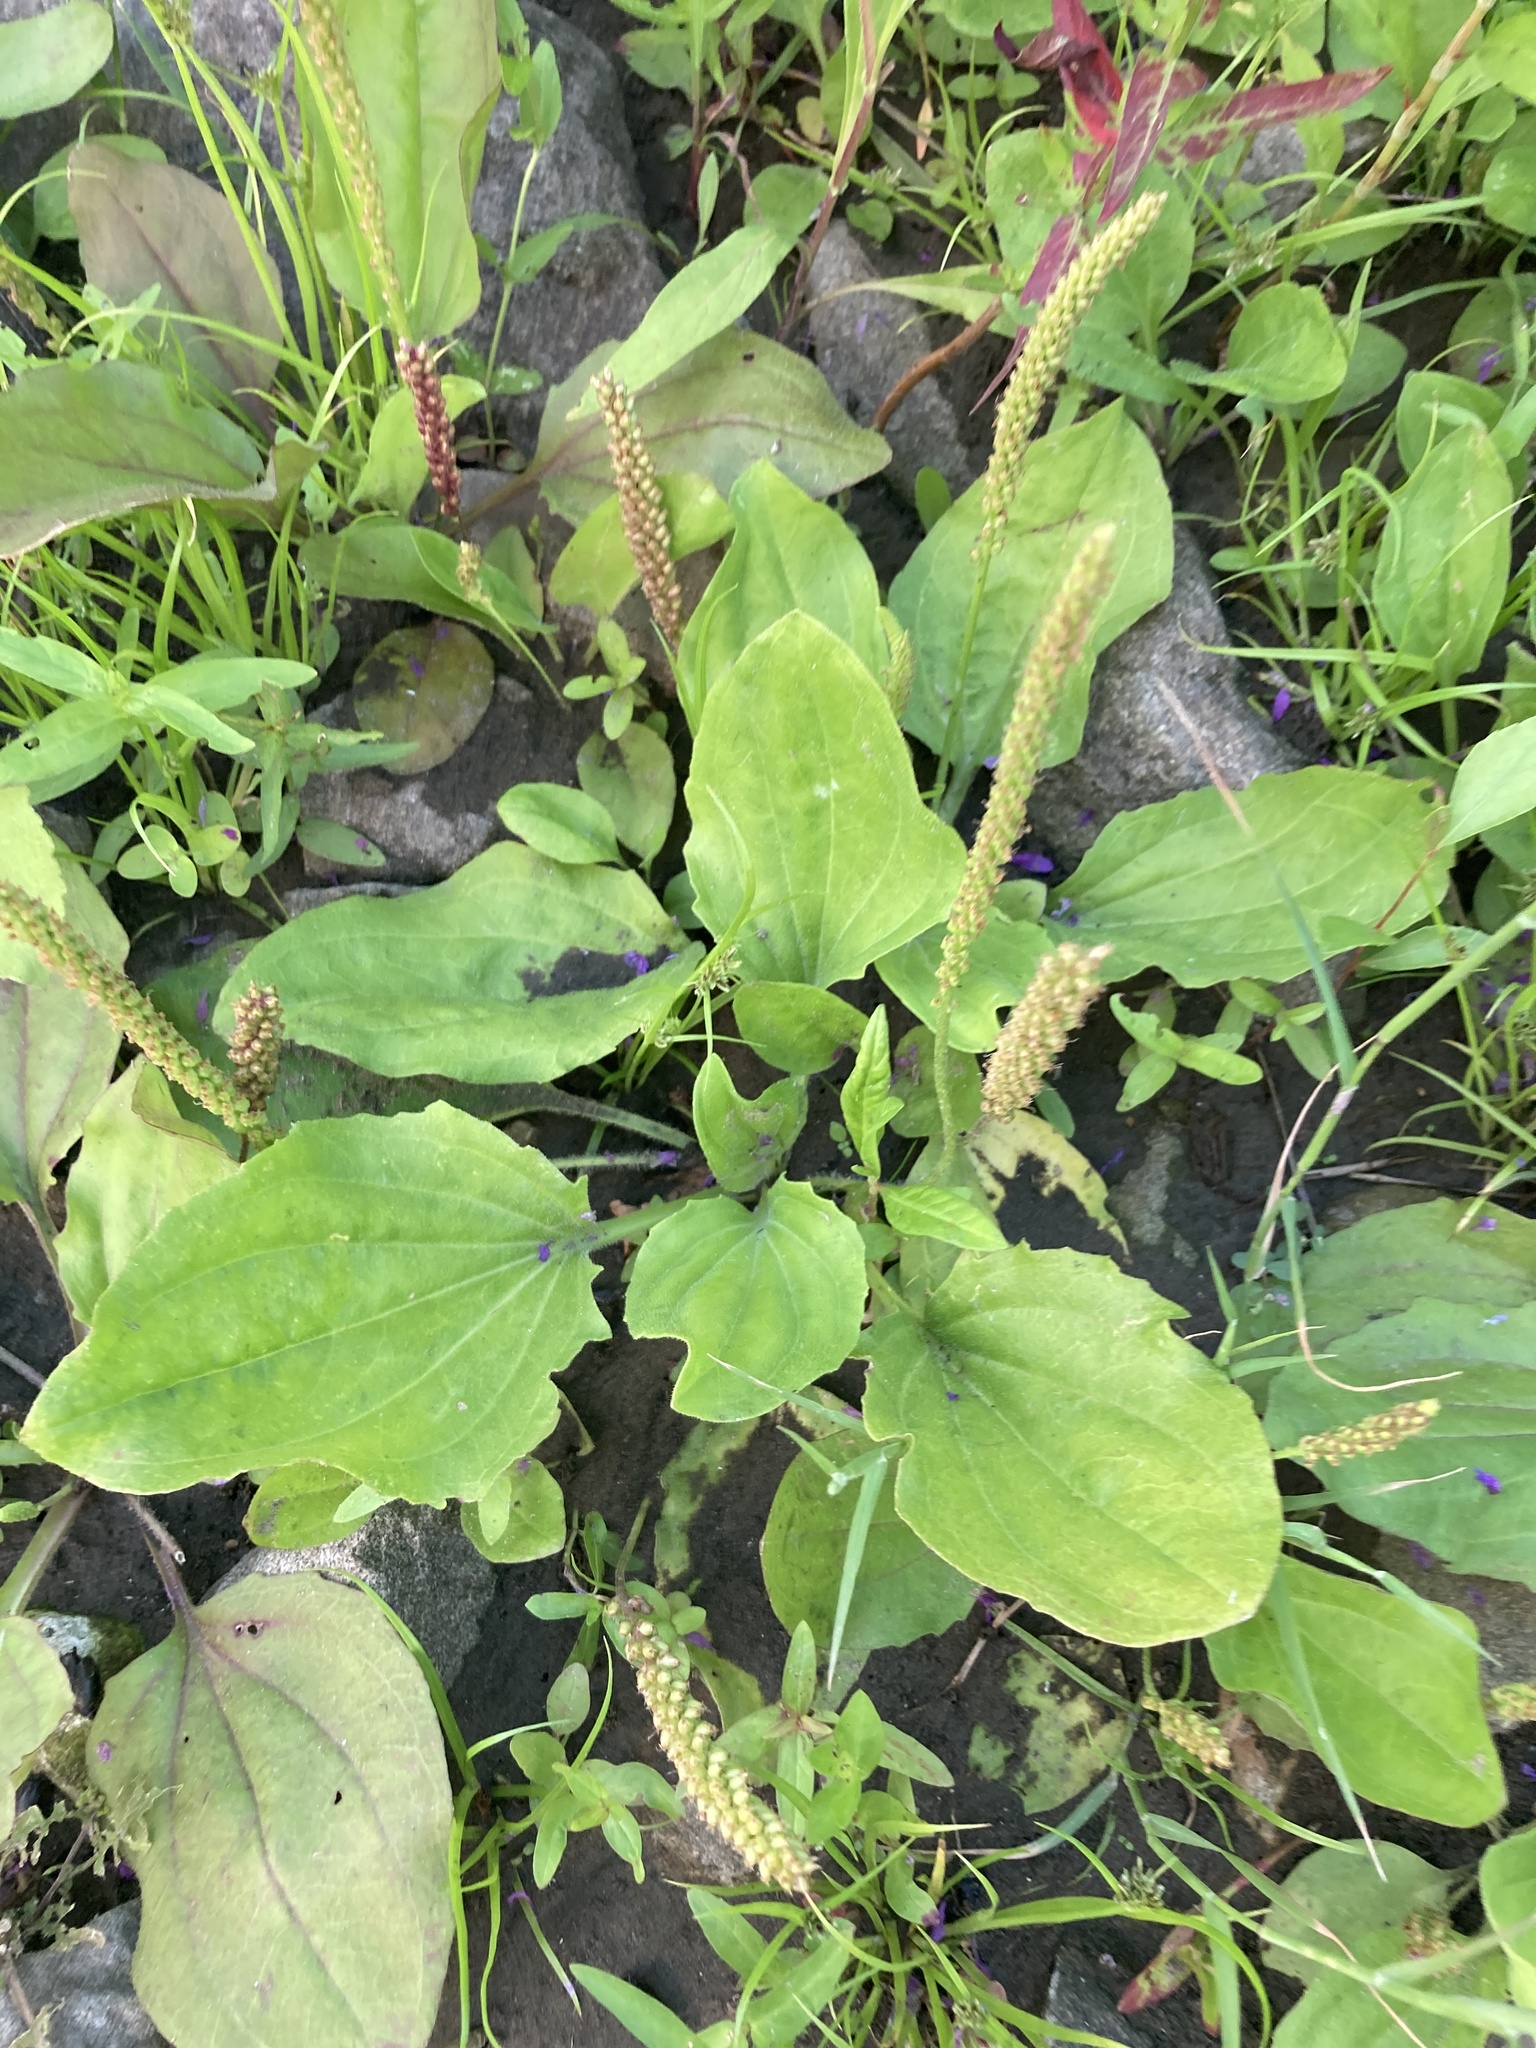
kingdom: Plantae
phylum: Tracheophyta
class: Magnoliopsida
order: Lamiales
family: Plantaginaceae
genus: Plantago
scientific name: Plantago major
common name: Common plantain
